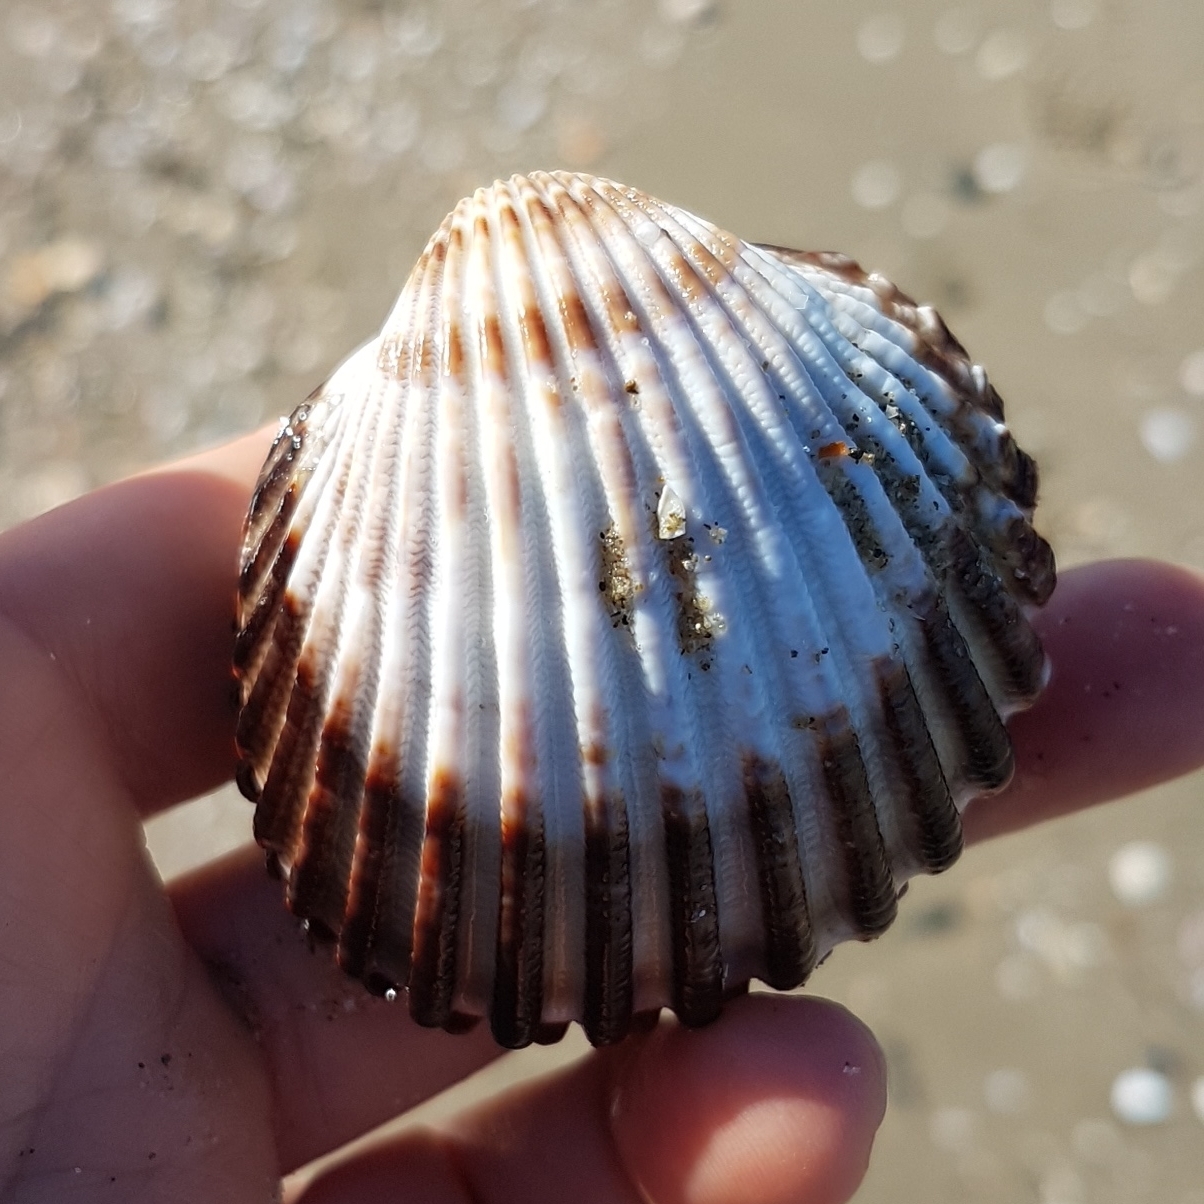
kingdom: Animalia
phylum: Mollusca
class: Bivalvia
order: Cardiida
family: Cardiidae
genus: Acanthocardia
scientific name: Acanthocardia tuberculata
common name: Rough cockle
